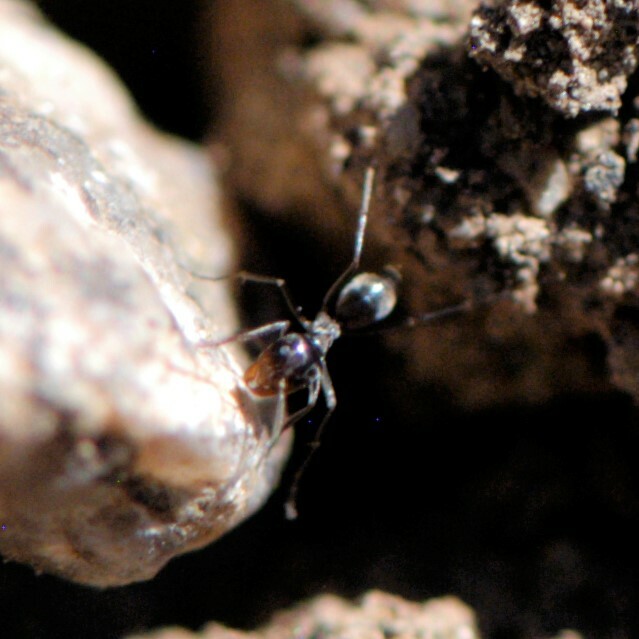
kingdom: Animalia
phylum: Arthropoda
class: Insecta
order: Hymenoptera
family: Formicidae
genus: Dorymyrmex
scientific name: Dorymyrmex
